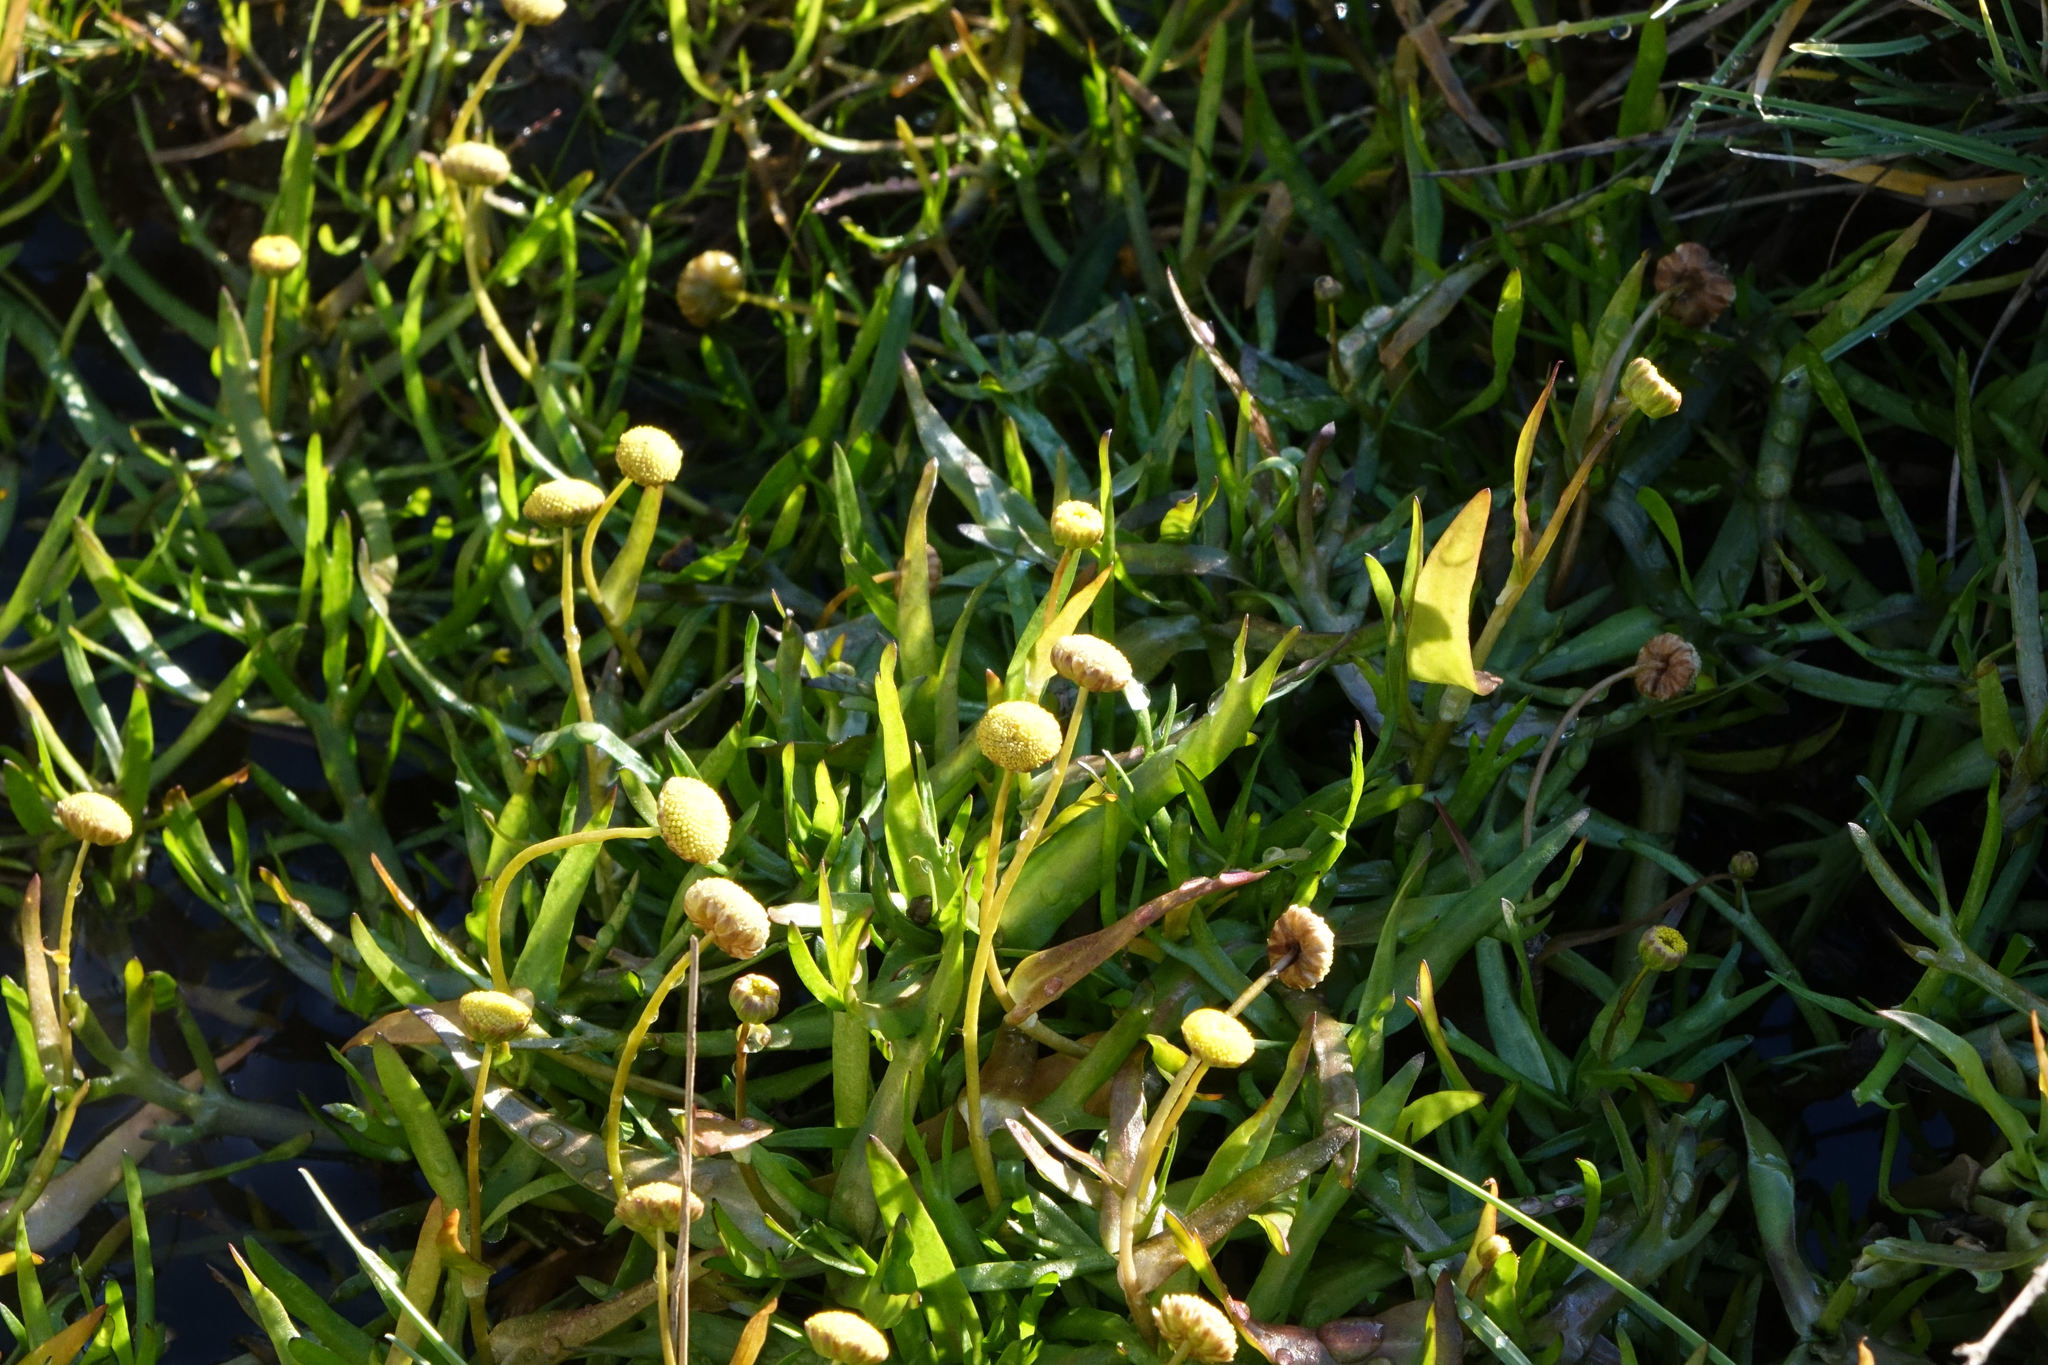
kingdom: Plantae
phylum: Tracheophyta
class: Magnoliopsida
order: Asterales
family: Asteraceae
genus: Cotula
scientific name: Cotula coronopifolia
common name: Buttonweed
